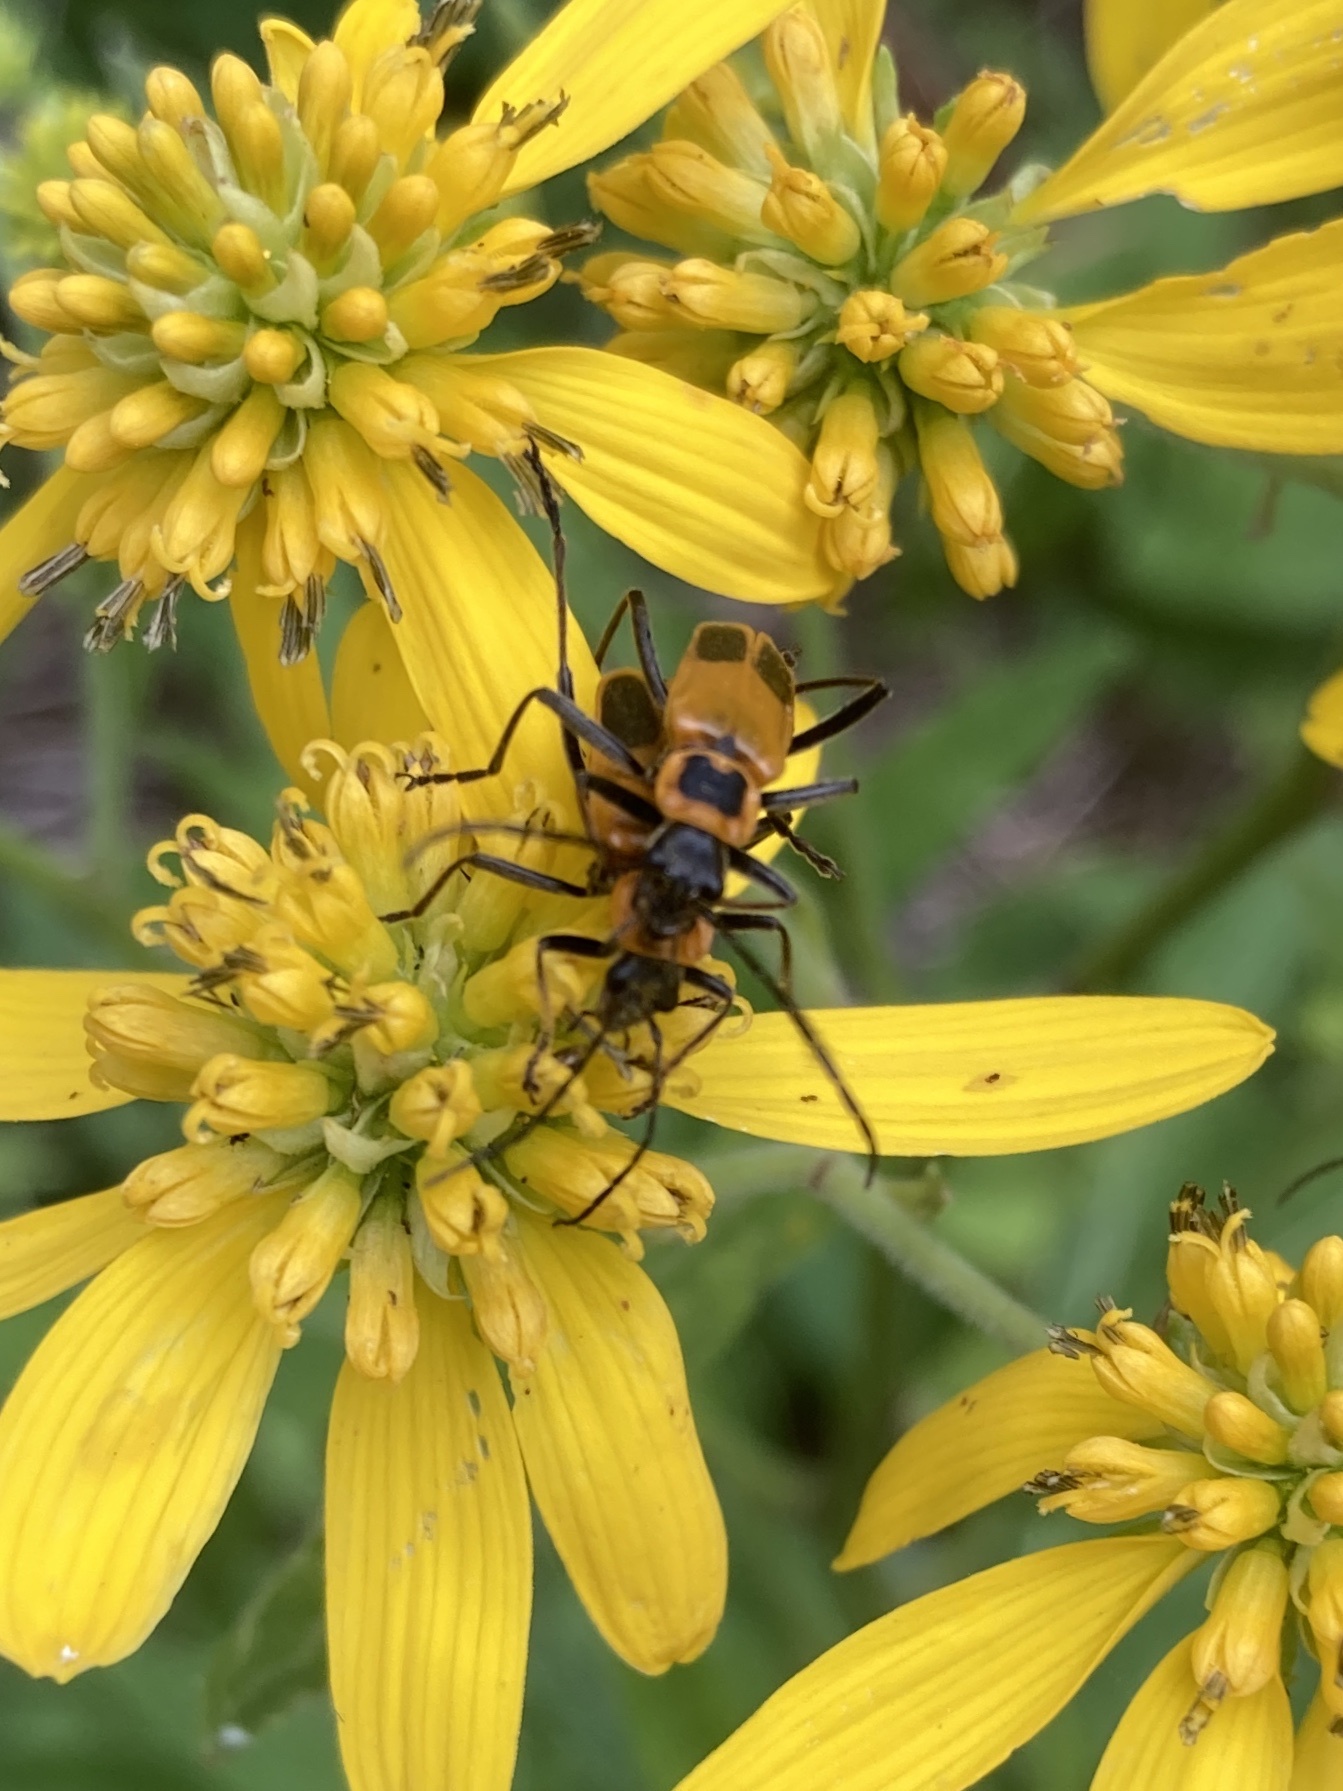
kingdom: Animalia
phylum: Arthropoda
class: Insecta
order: Coleoptera
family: Cantharidae
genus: Chauliognathus
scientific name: Chauliognathus pensylvanicus
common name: Goldenrod soldier beetle
